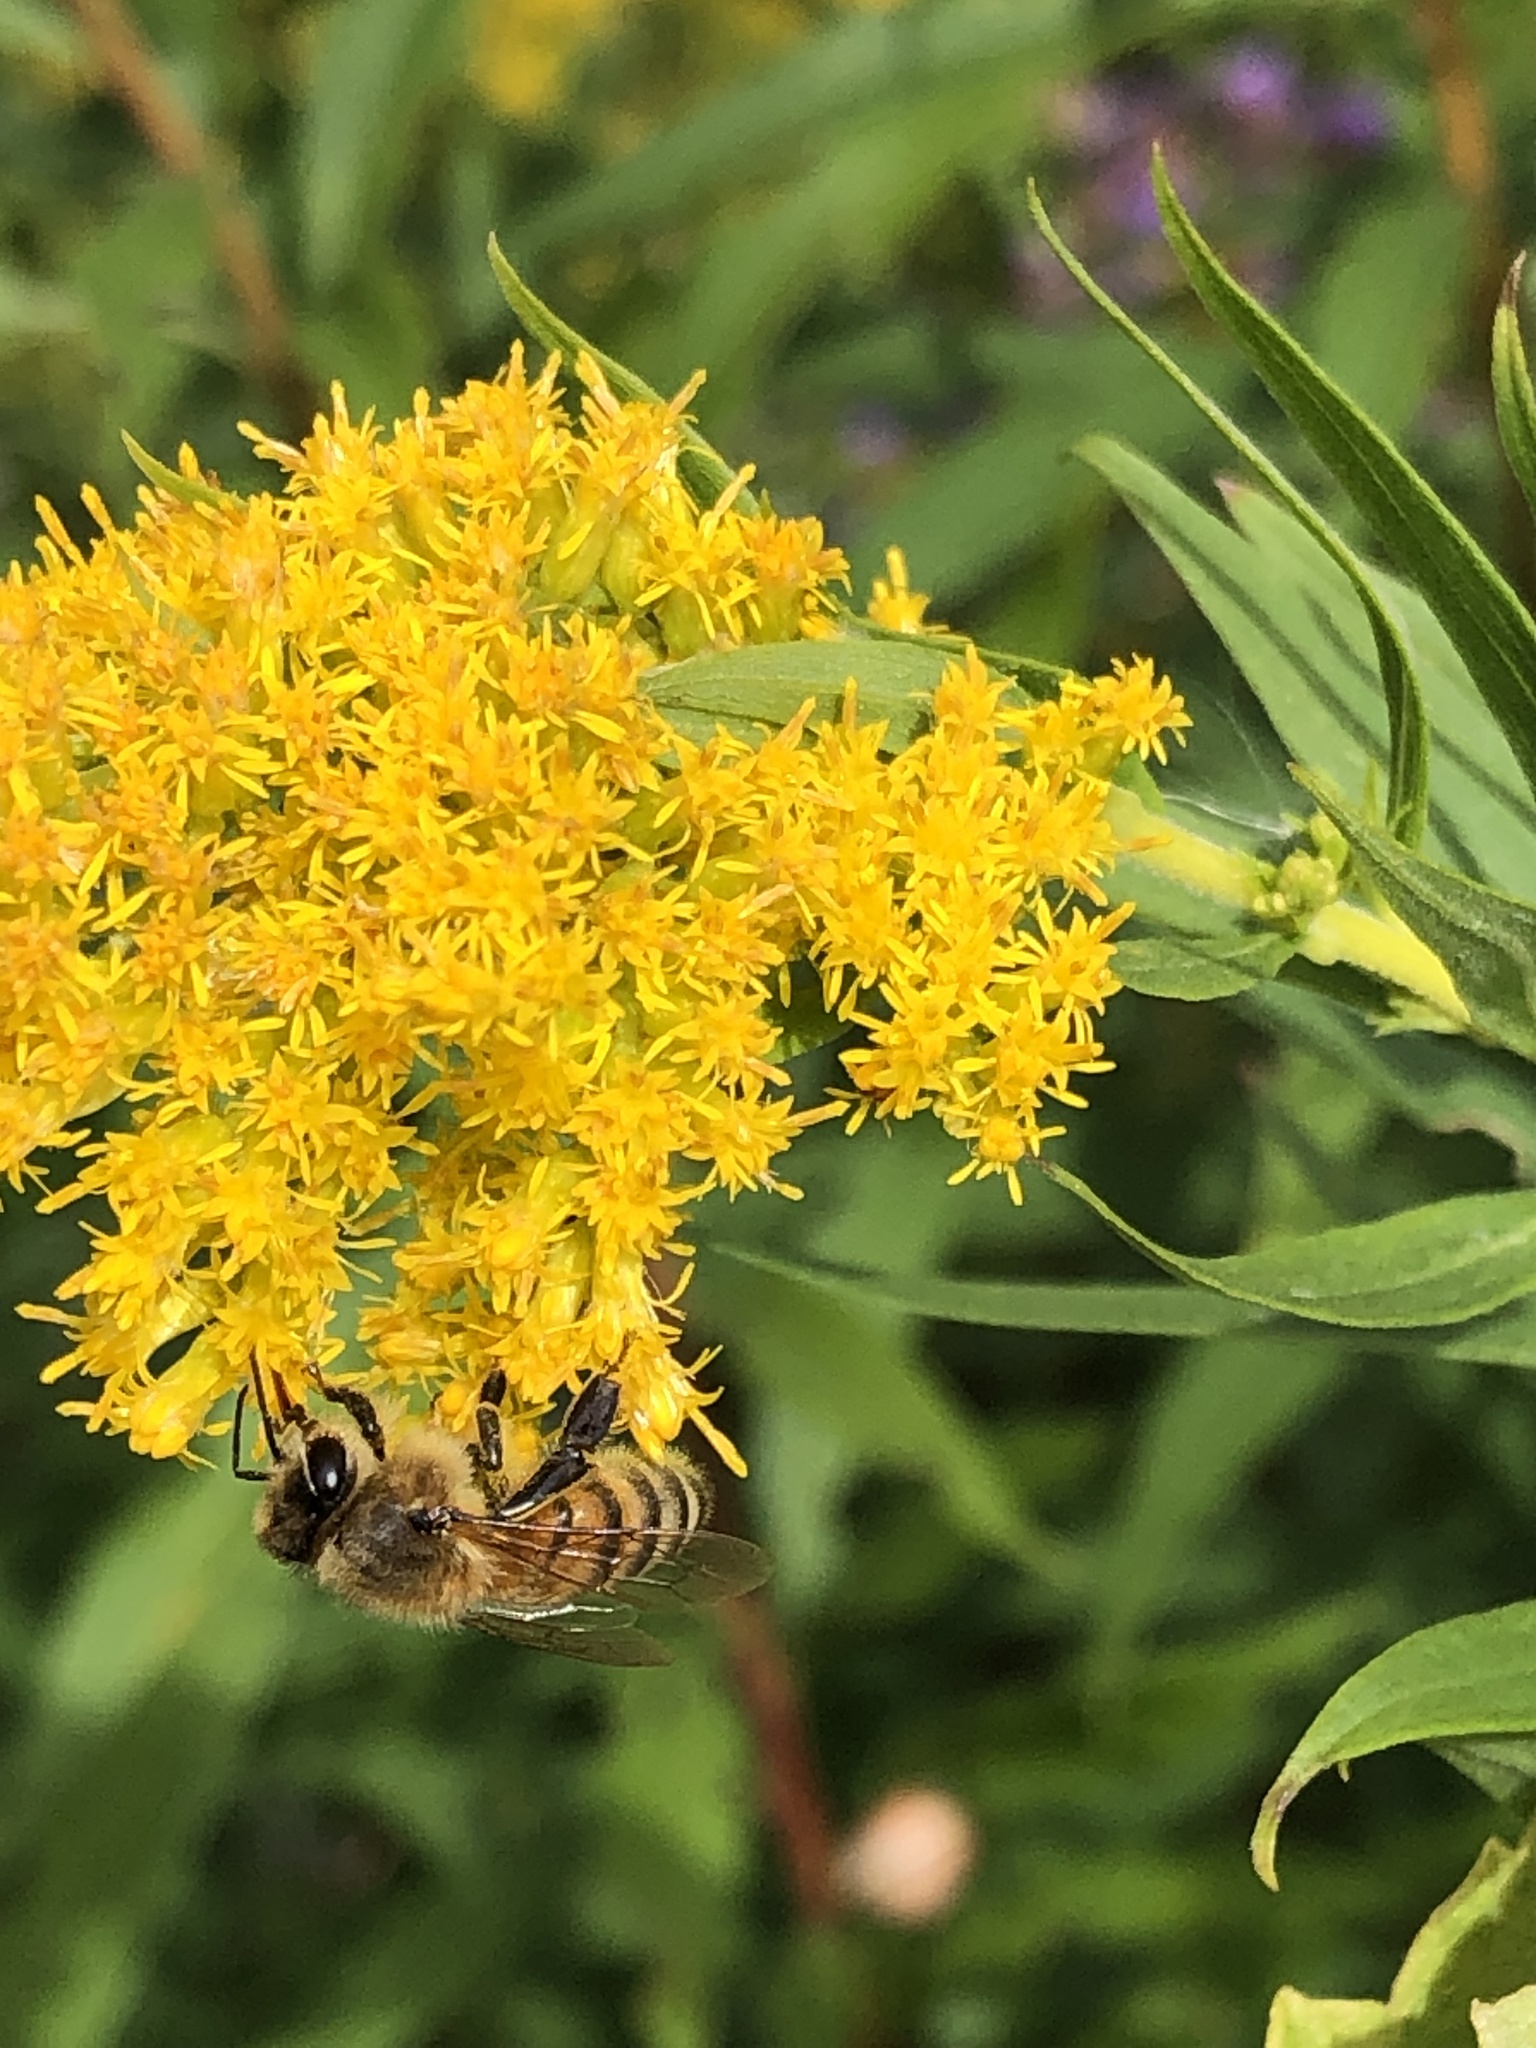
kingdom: Animalia
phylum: Arthropoda
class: Insecta
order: Hymenoptera
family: Apidae
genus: Apis
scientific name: Apis mellifera
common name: Honey bee
